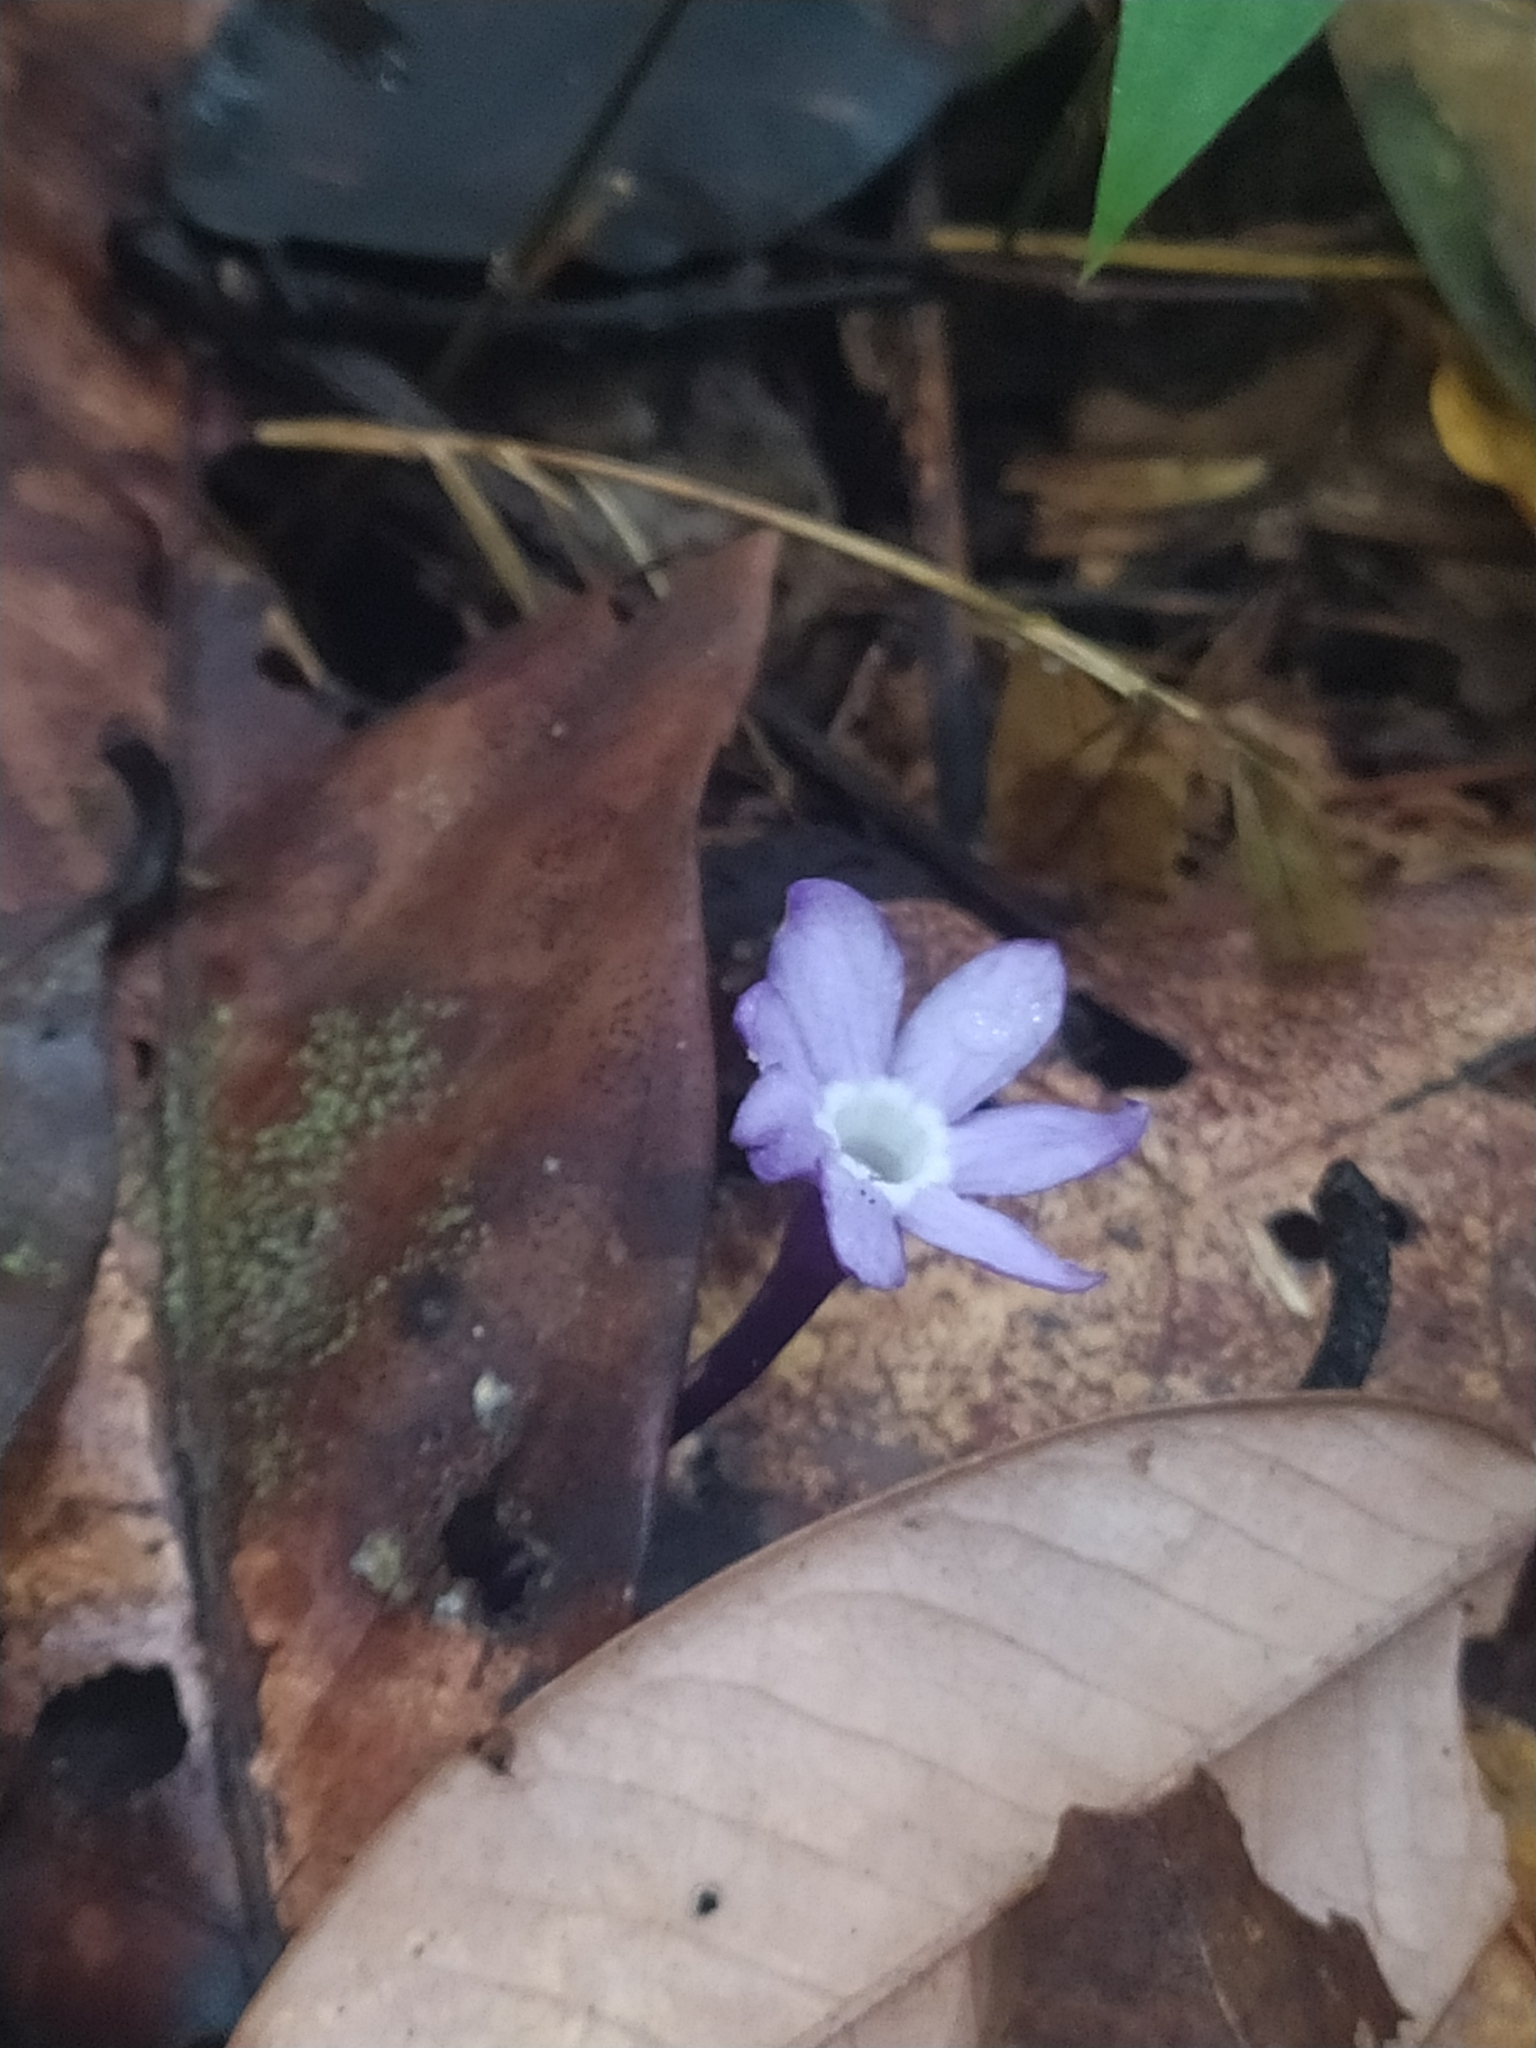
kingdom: Plantae
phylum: Tracheophyta
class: Magnoliopsida
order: Gentianales
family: Gentianaceae
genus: Voyria
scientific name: Voyria caerulea
